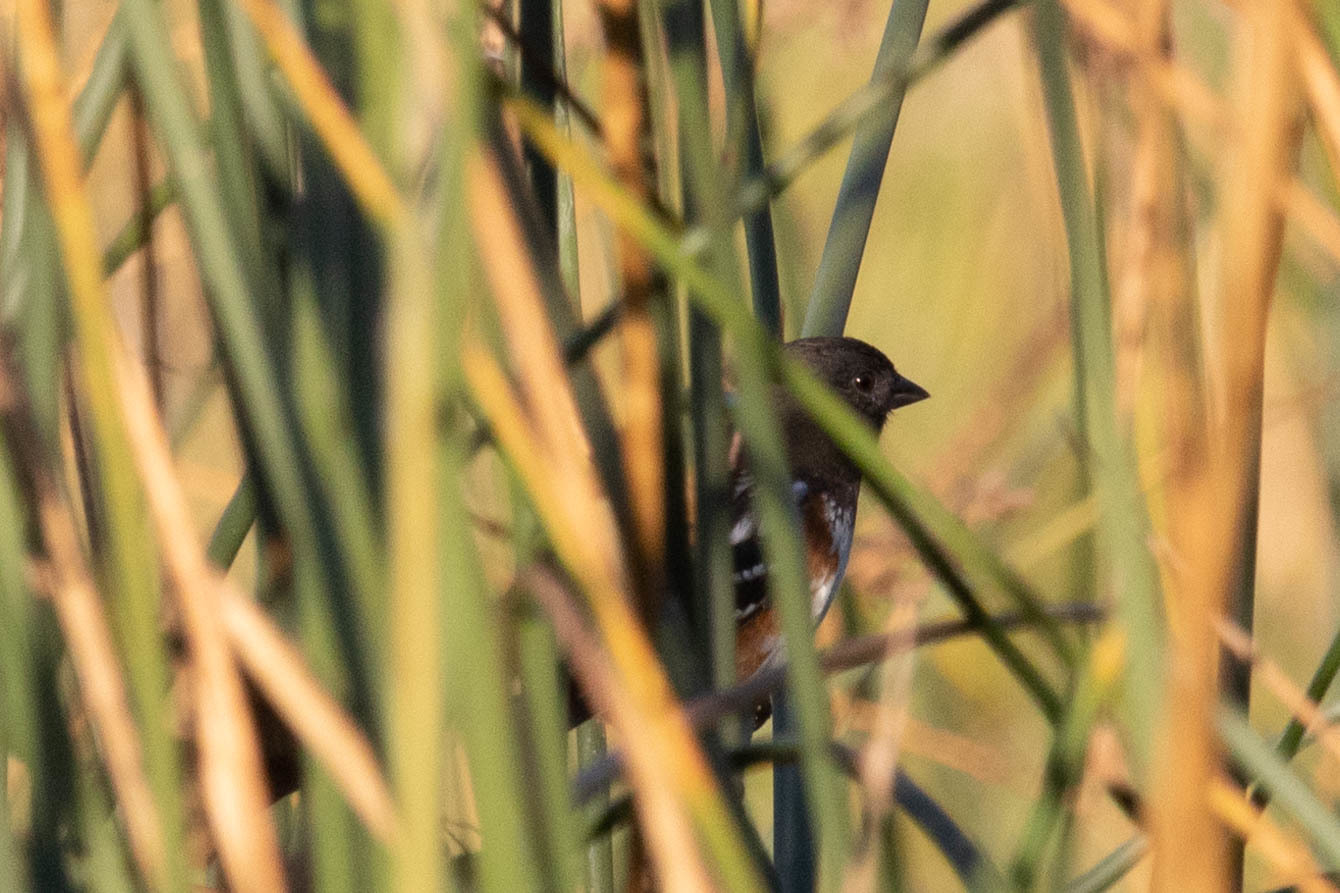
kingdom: Animalia
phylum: Chordata
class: Aves
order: Passeriformes
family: Passerellidae
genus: Pipilo
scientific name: Pipilo maculatus
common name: Spotted towhee
